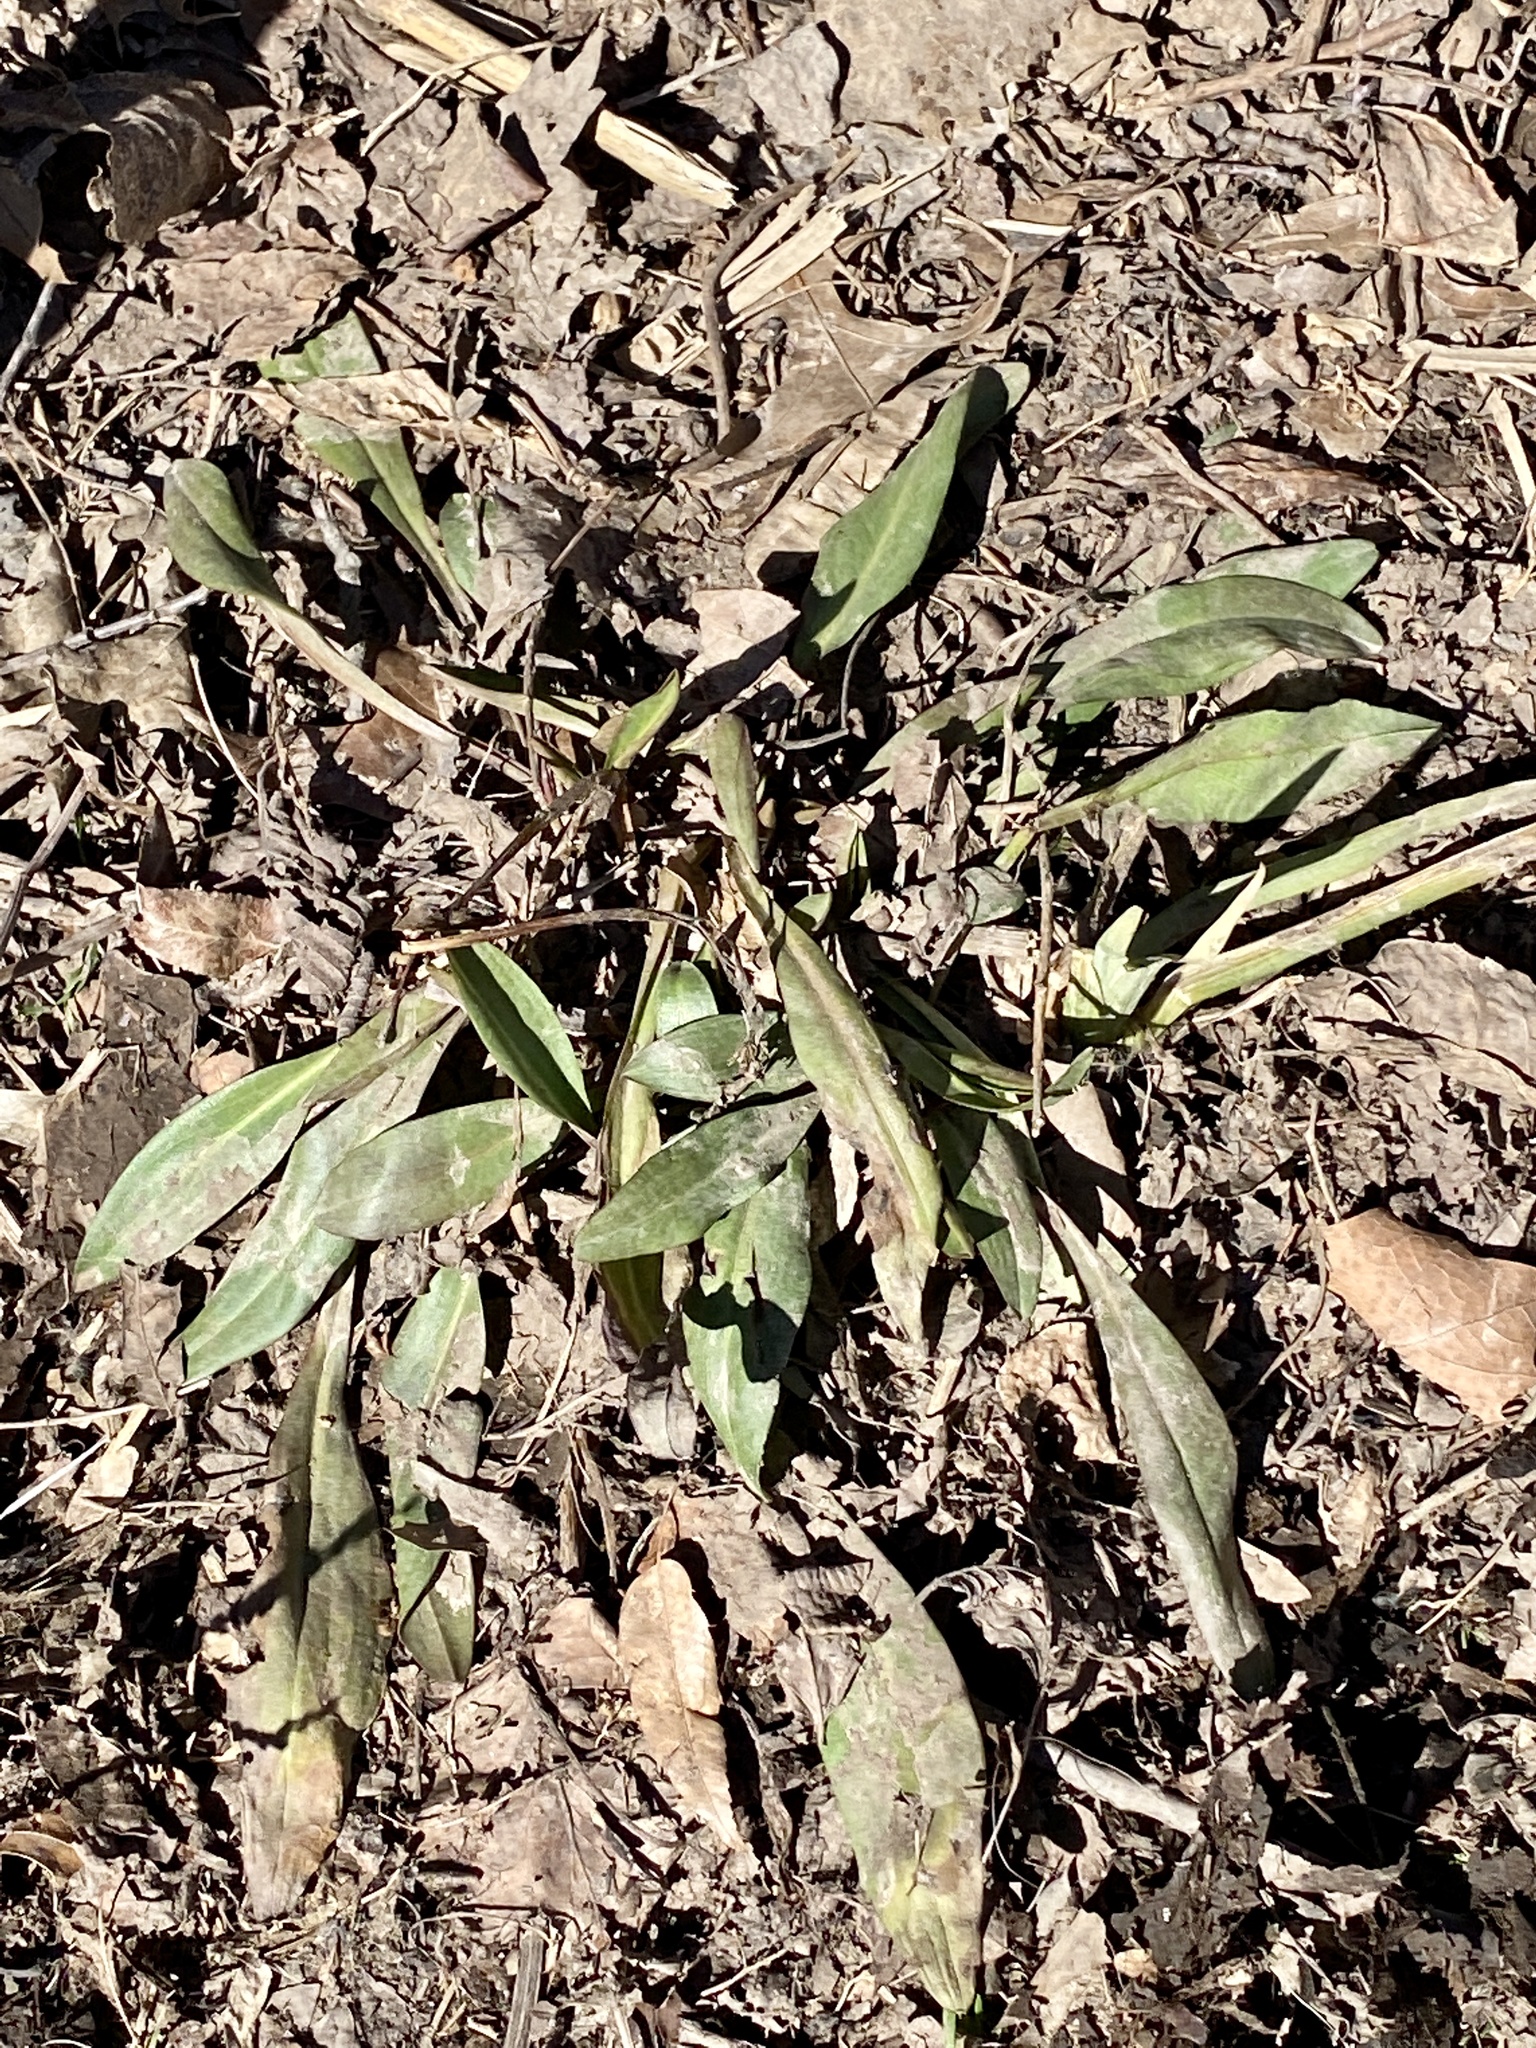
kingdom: Plantae
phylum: Tracheophyta
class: Magnoliopsida
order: Asterales
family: Asteraceae
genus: Solidago
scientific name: Solidago sempervirens
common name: Salt-marsh goldenrod
